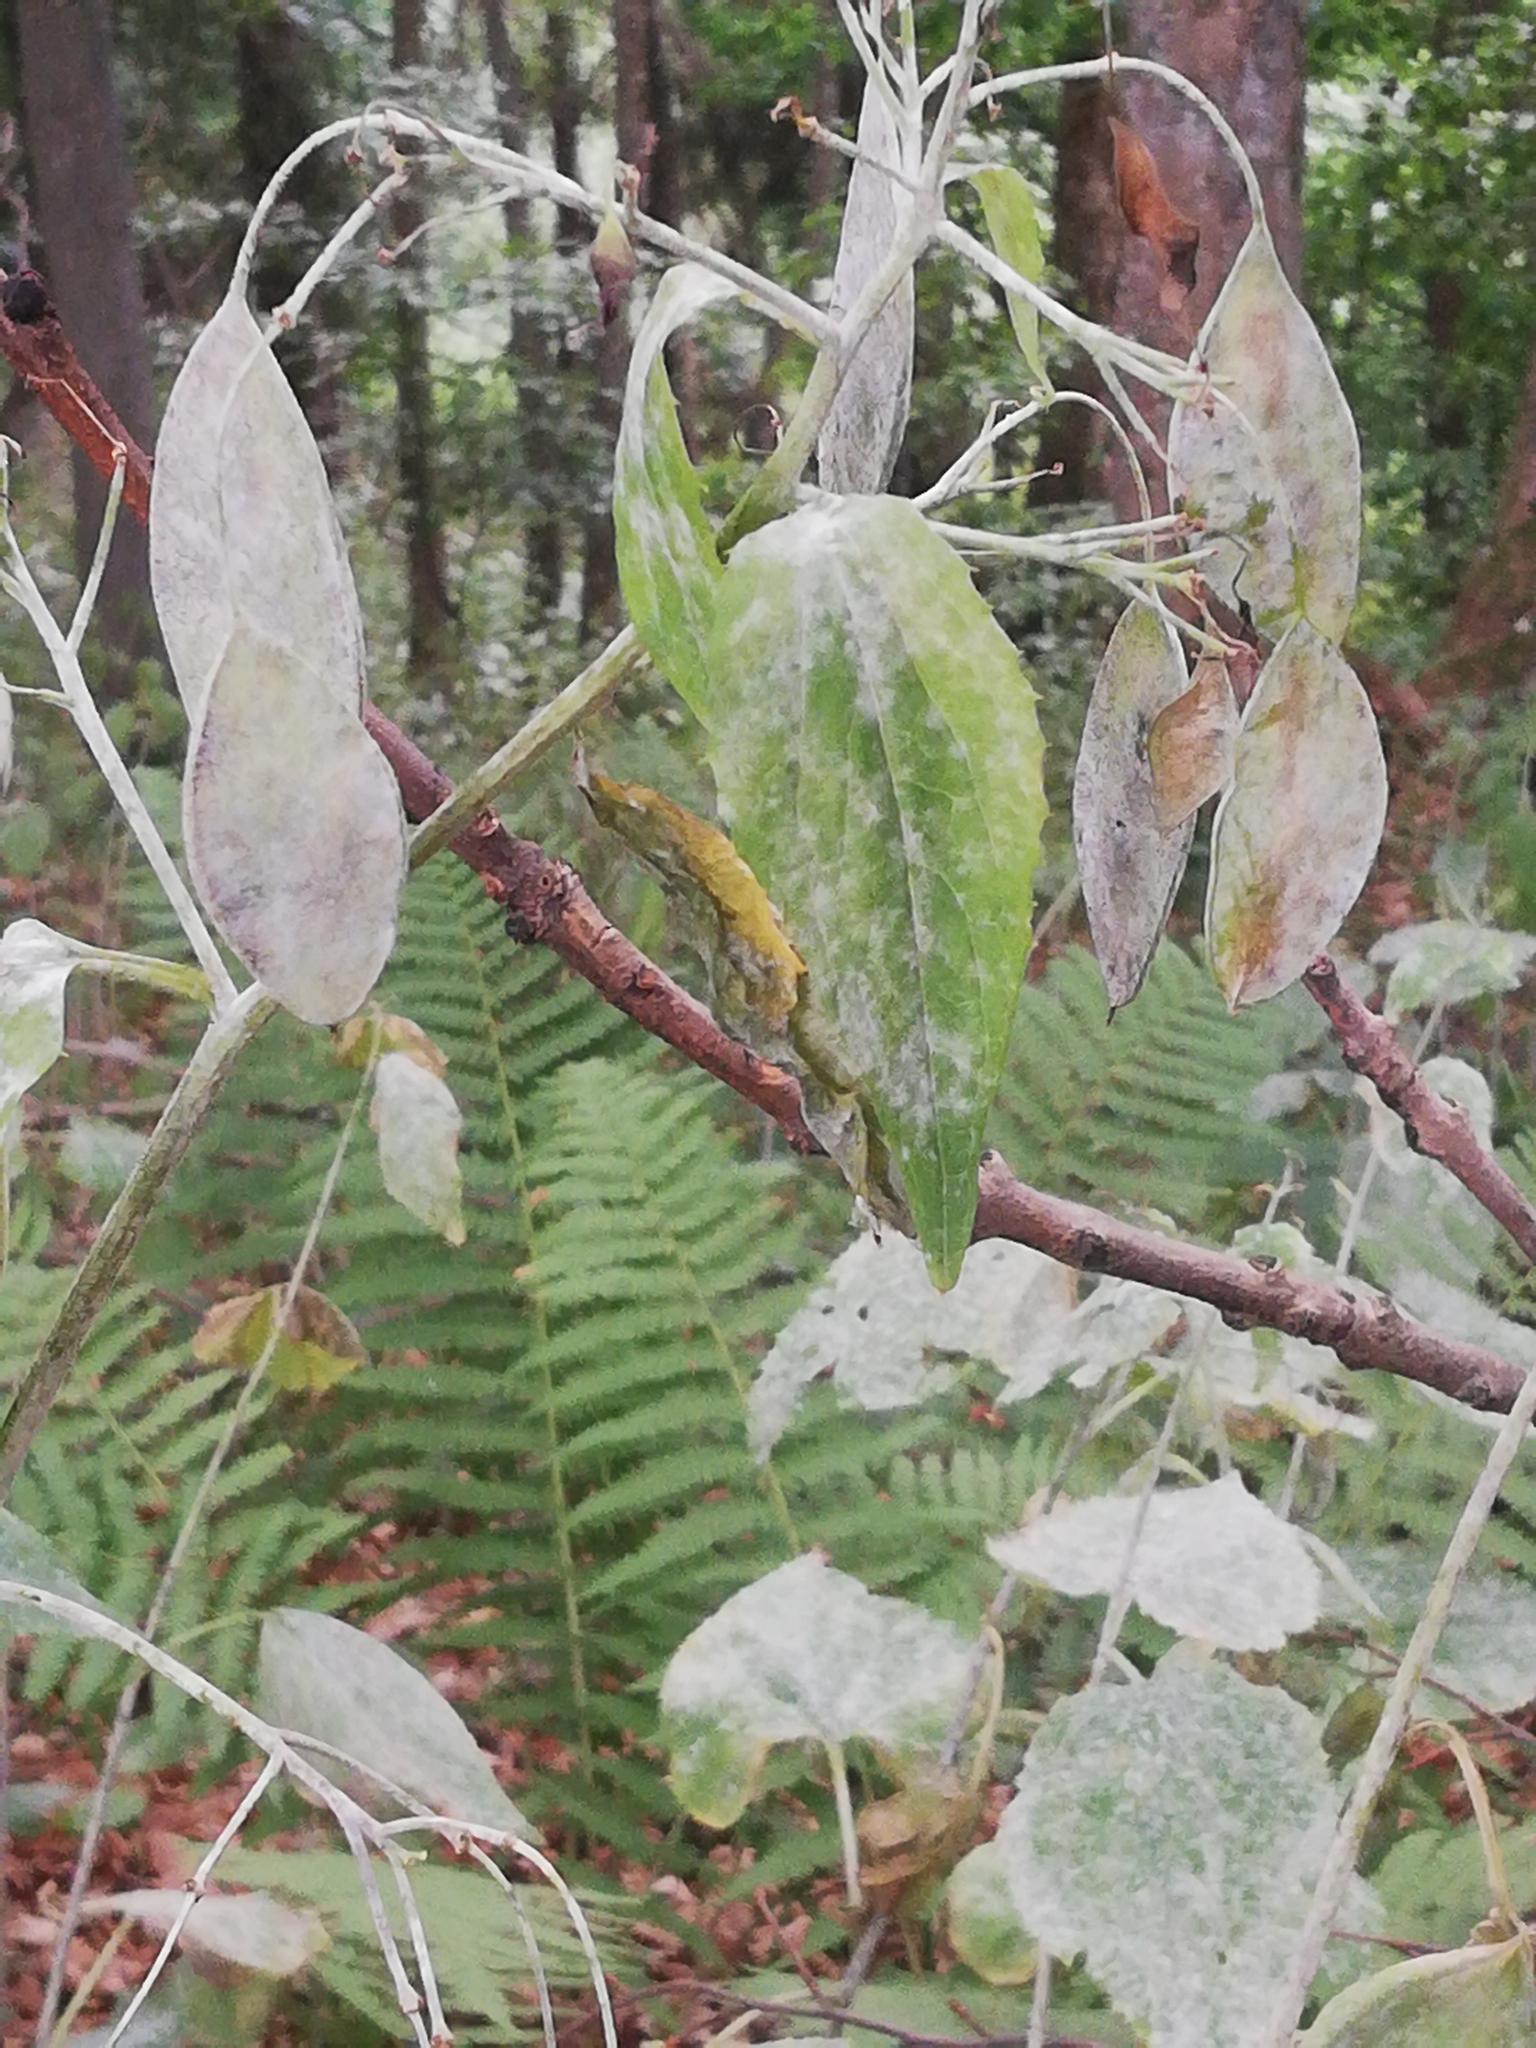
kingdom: Plantae
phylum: Tracheophyta
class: Magnoliopsida
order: Brassicales
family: Brassicaceae
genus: Lunaria
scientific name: Lunaria rediviva
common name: Perennial honesty
